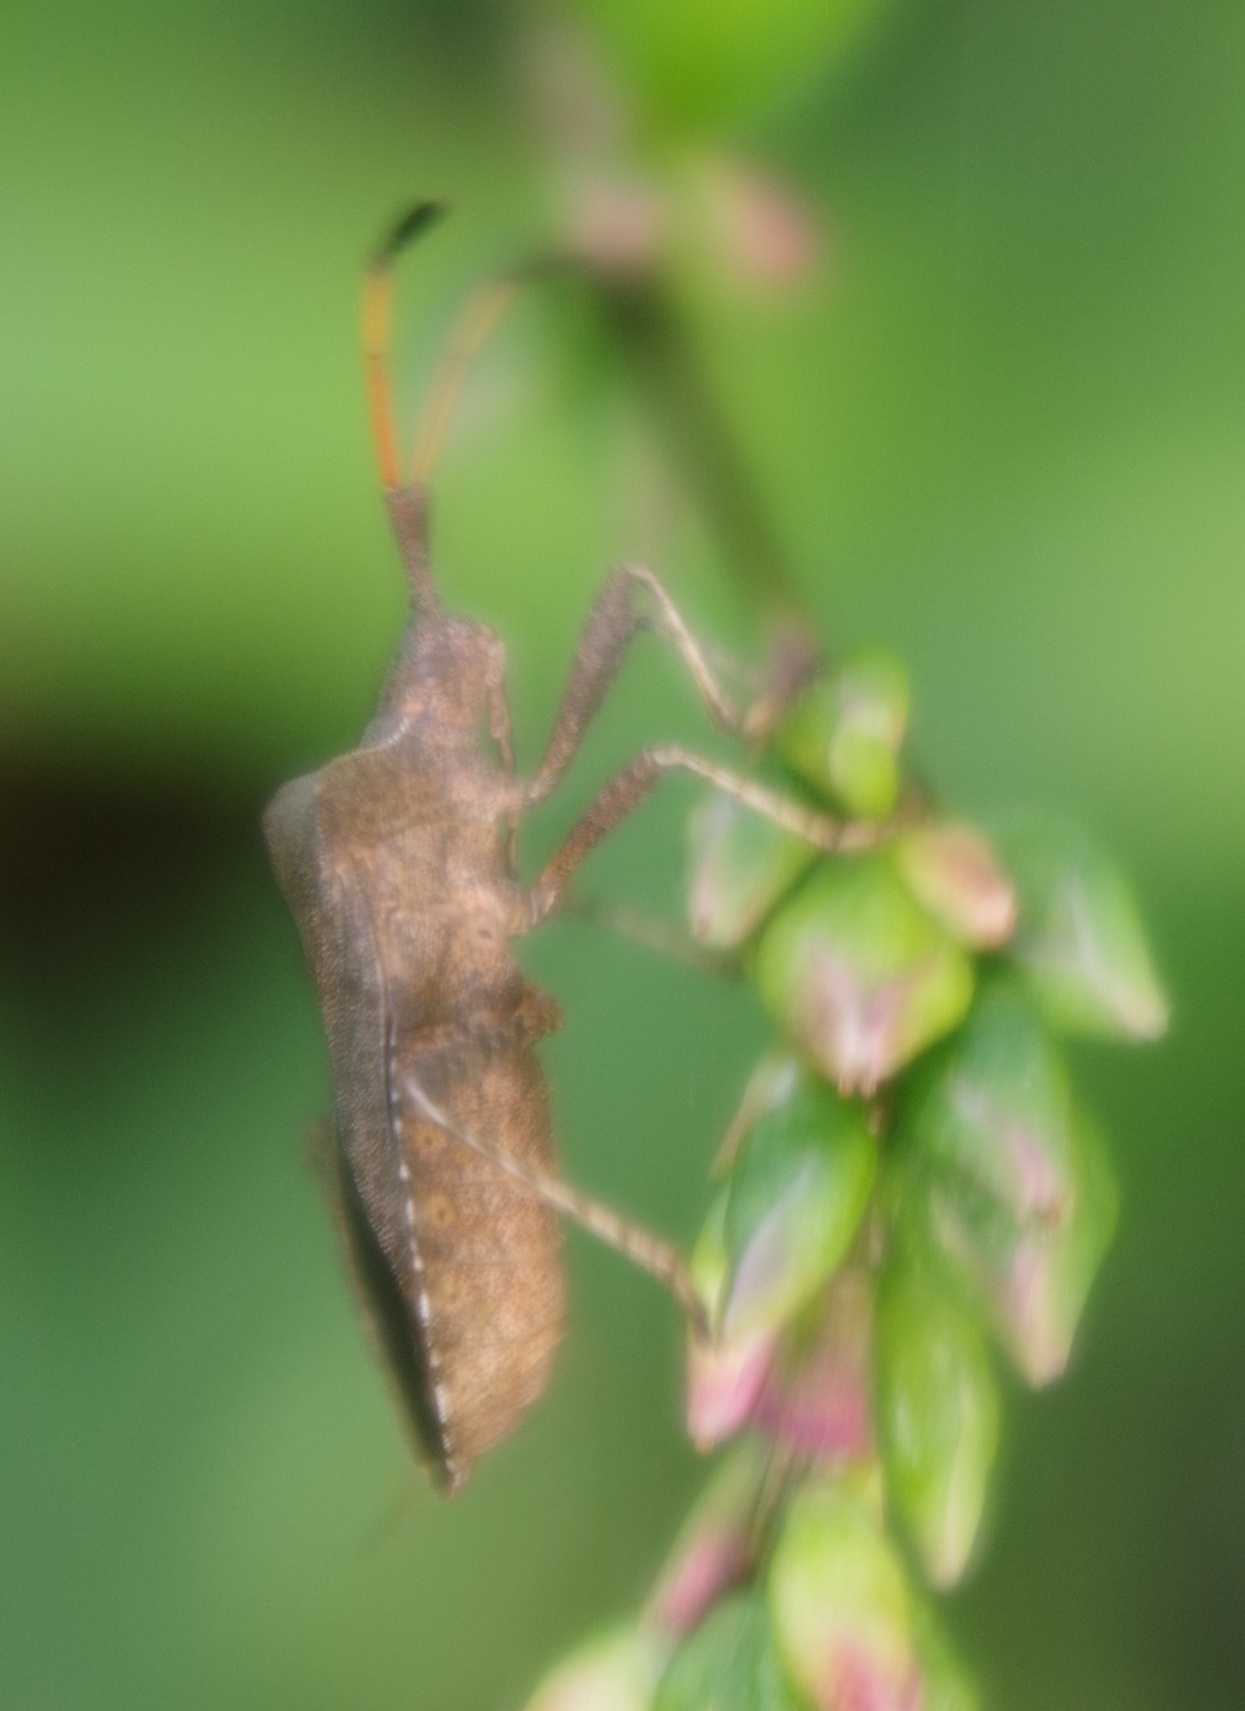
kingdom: Animalia
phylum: Arthropoda
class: Insecta
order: Hemiptera
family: Coreidae
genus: Coreus
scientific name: Coreus marginatus
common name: Dock bug
